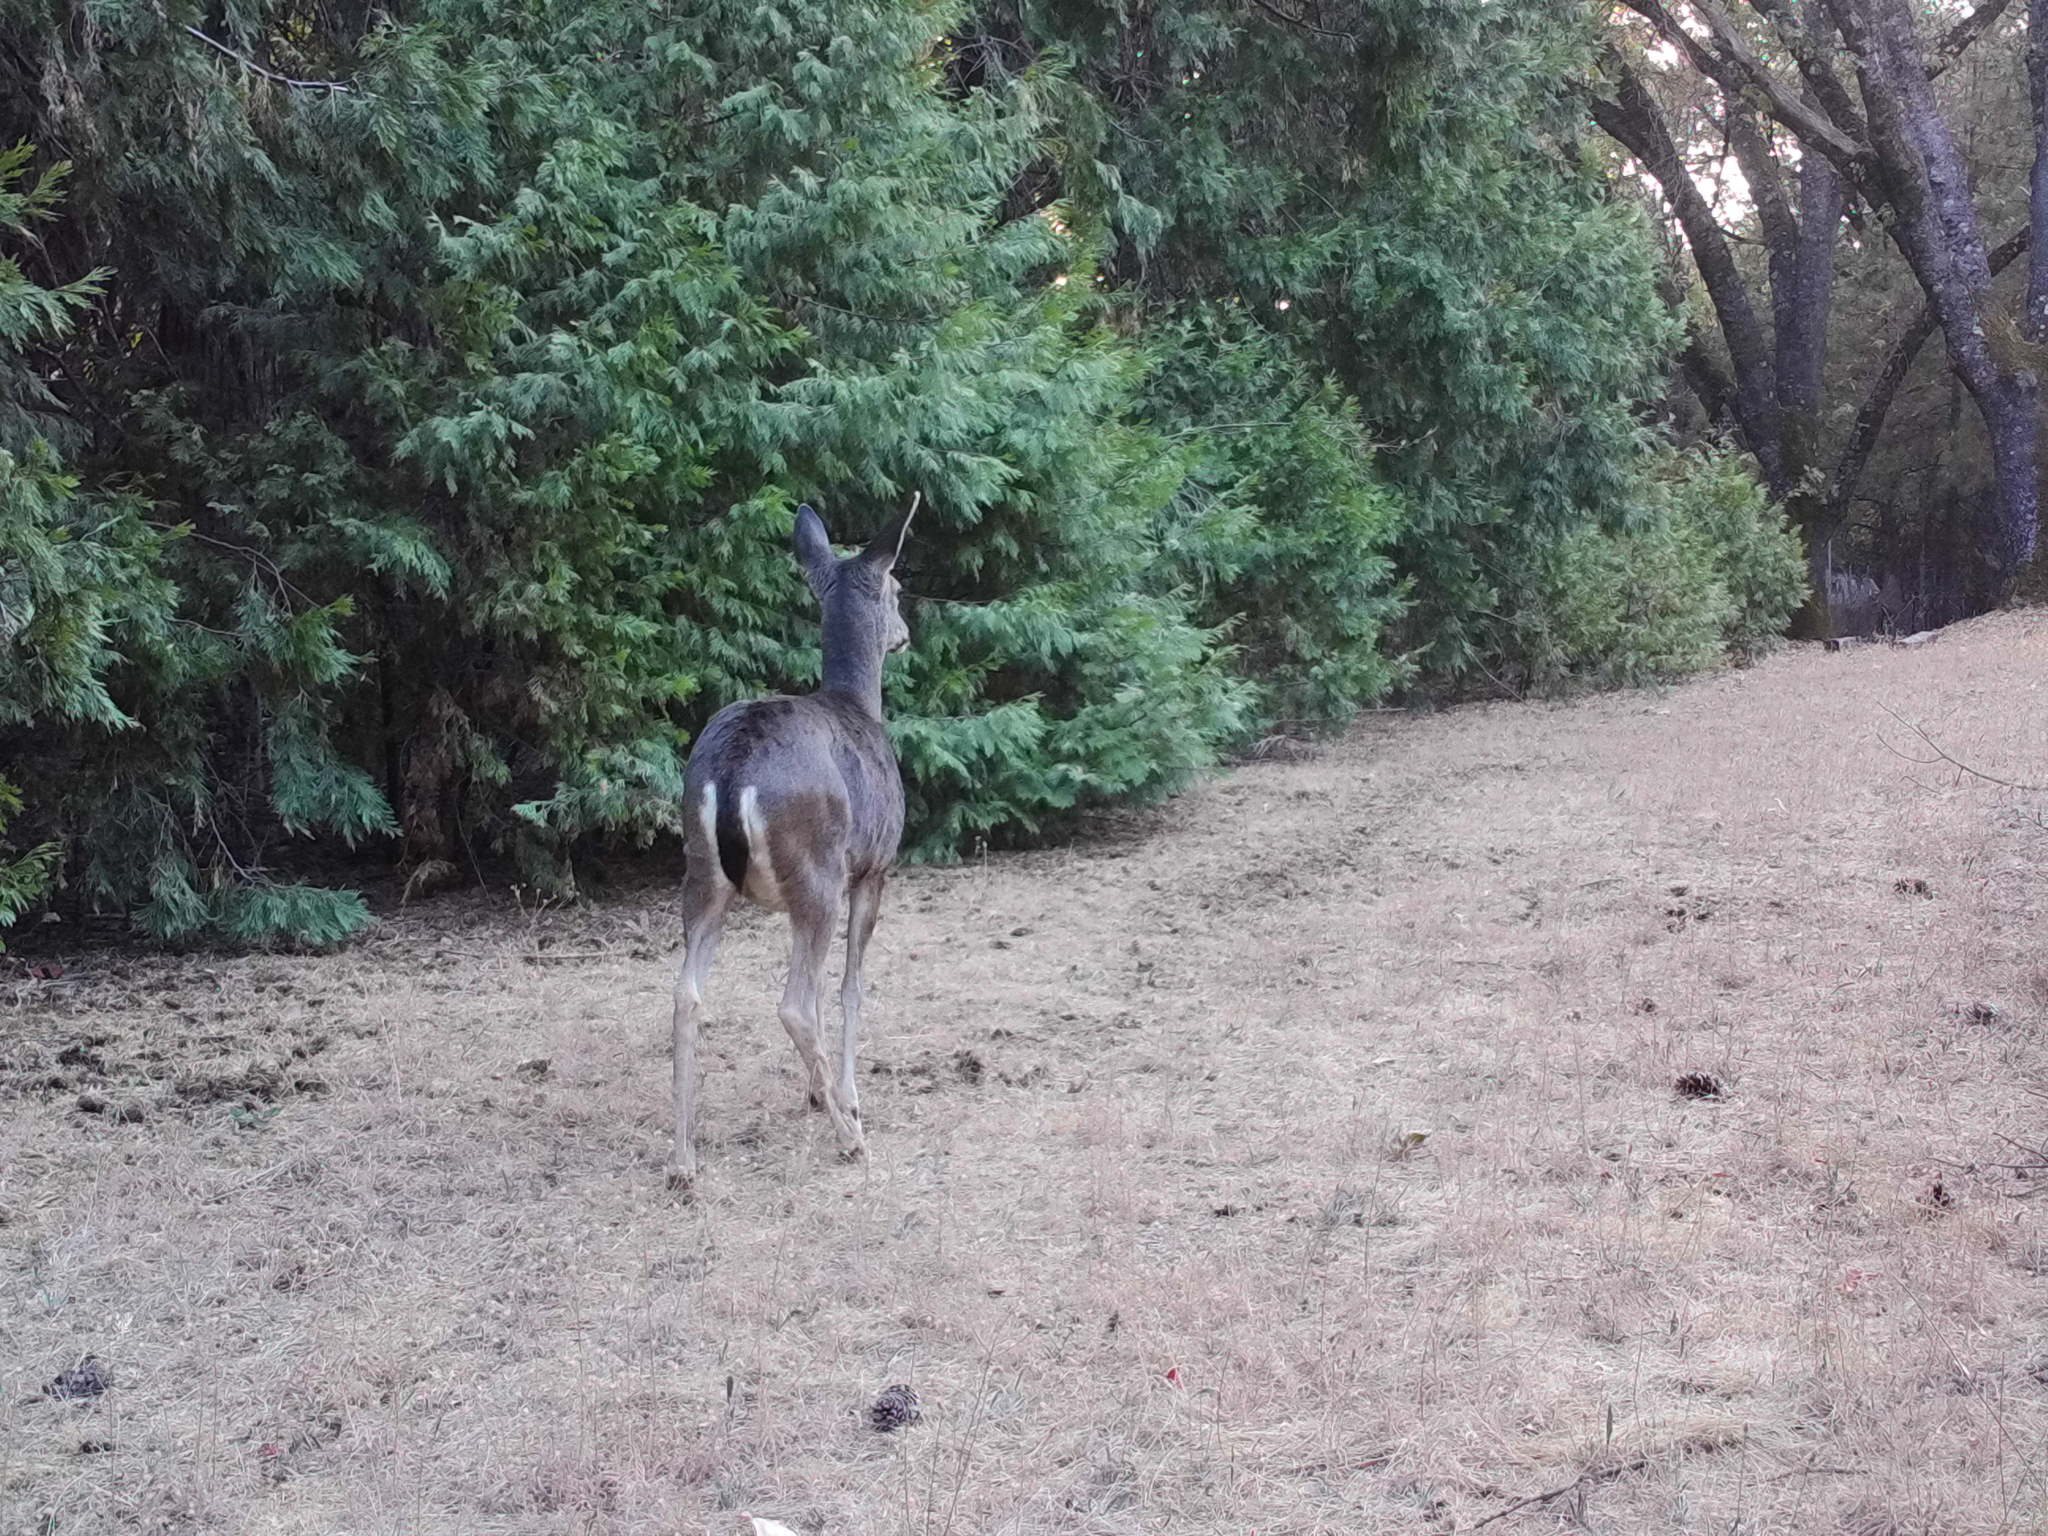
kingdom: Animalia
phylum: Chordata
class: Mammalia
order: Artiodactyla
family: Cervidae
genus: Odocoileus
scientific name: Odocoileus hemionus
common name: Mule deer
